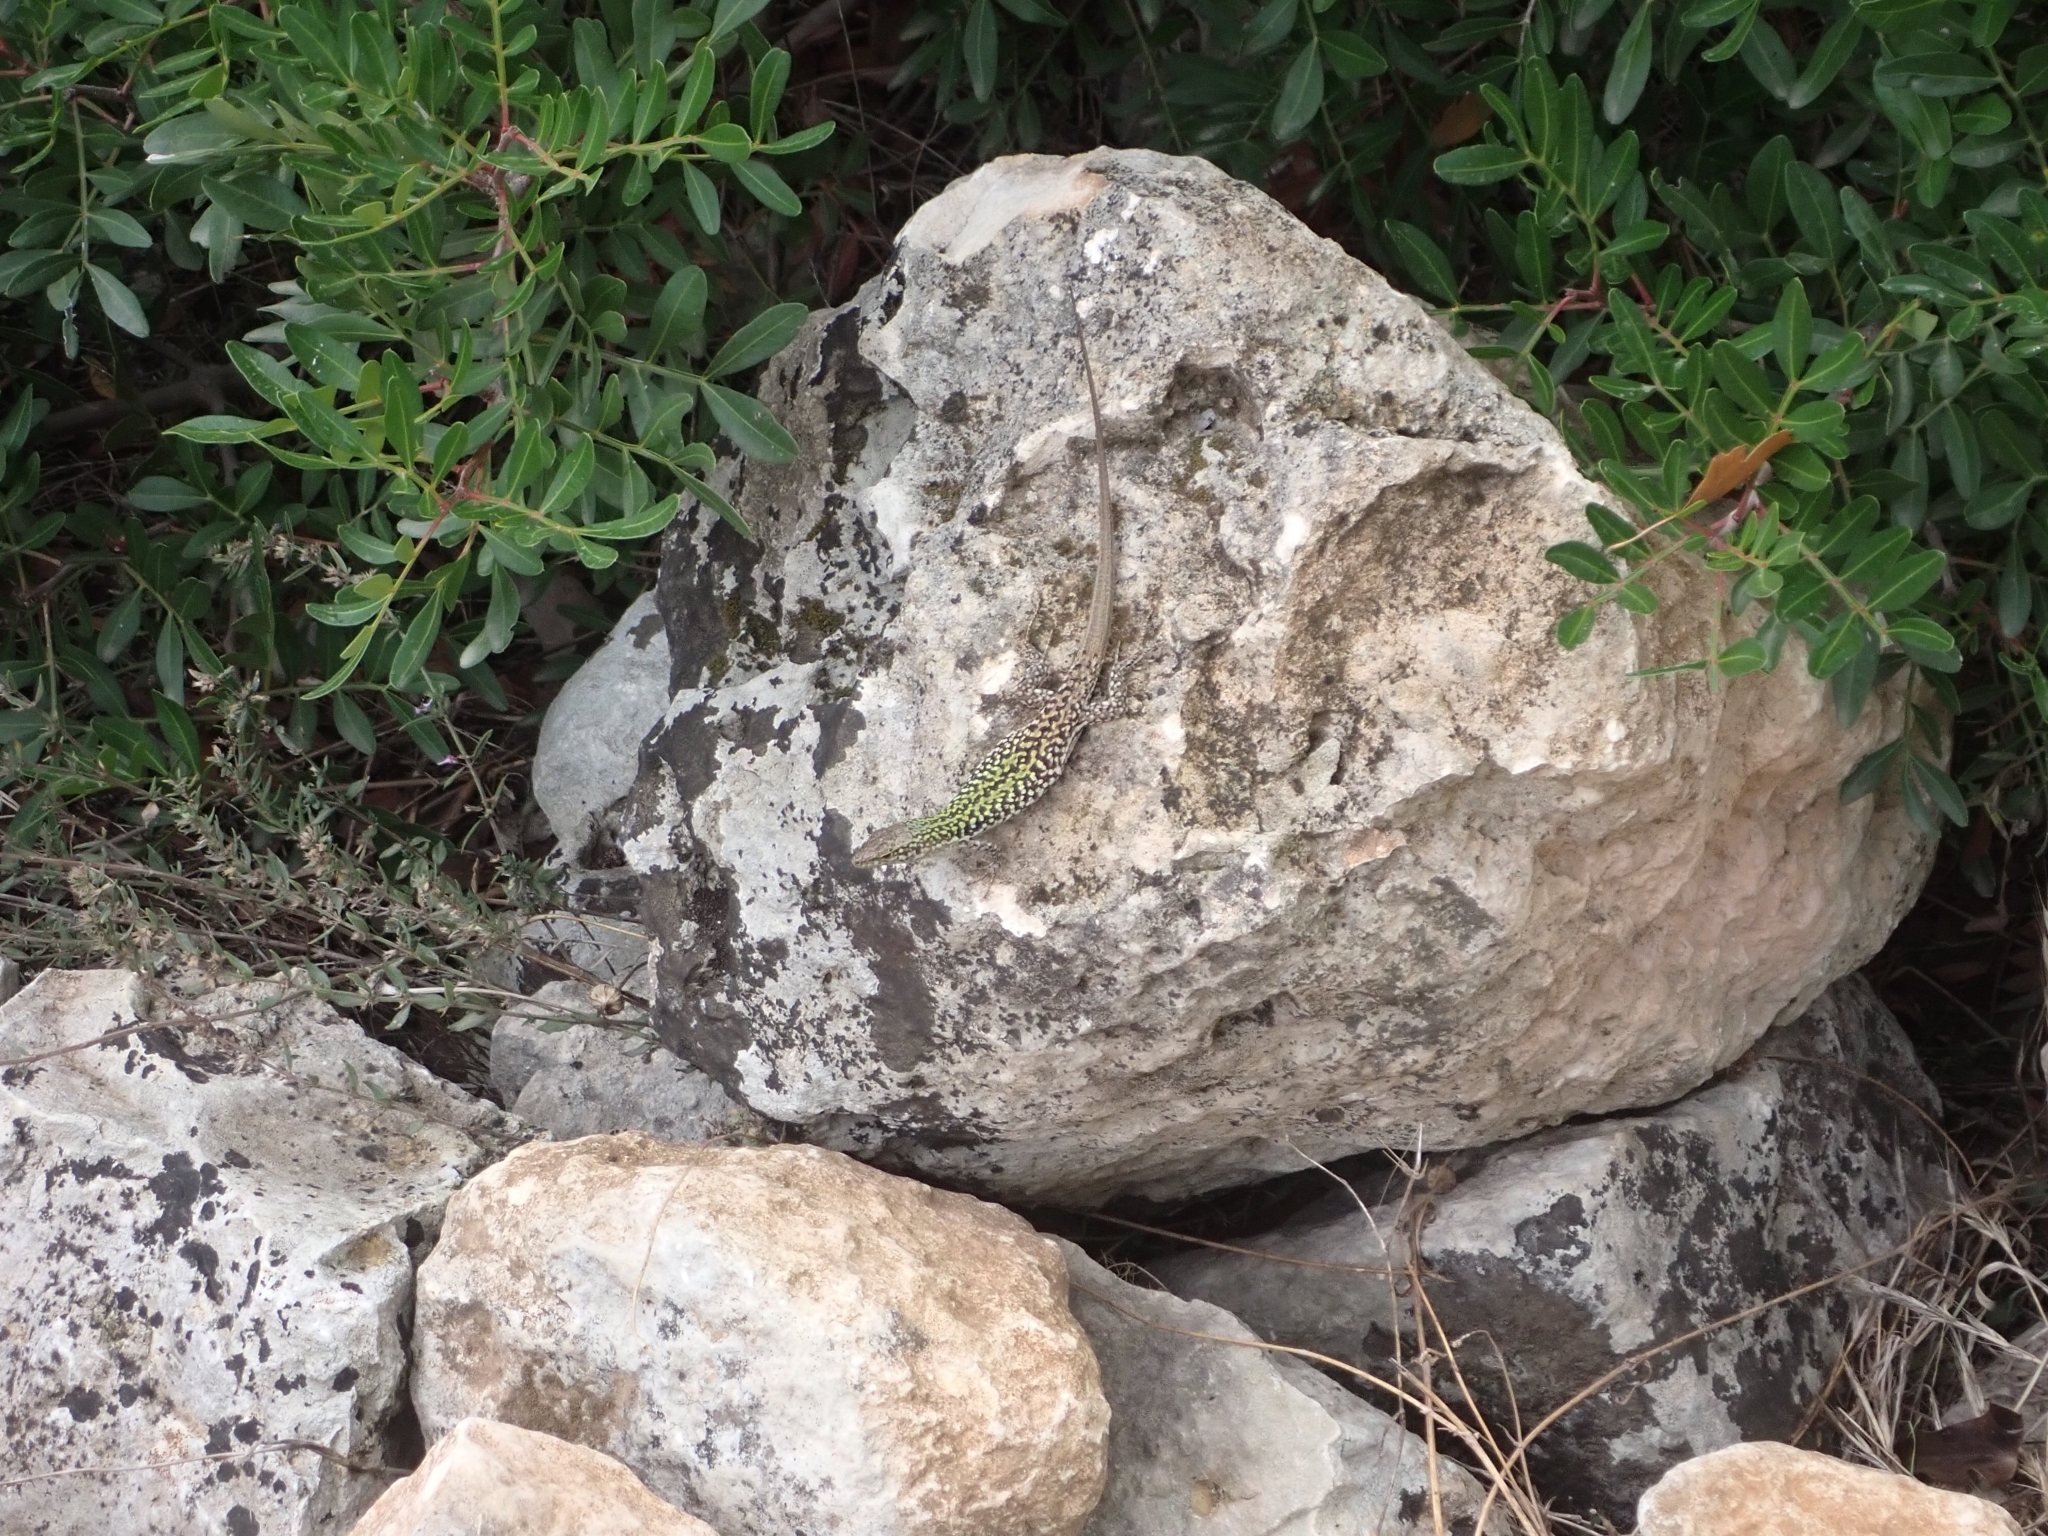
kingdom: Animalia
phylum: Chordata
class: Squamata
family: Lacertidae
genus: Podarcis
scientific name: Podarcis siculus
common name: Italian wall lizard
